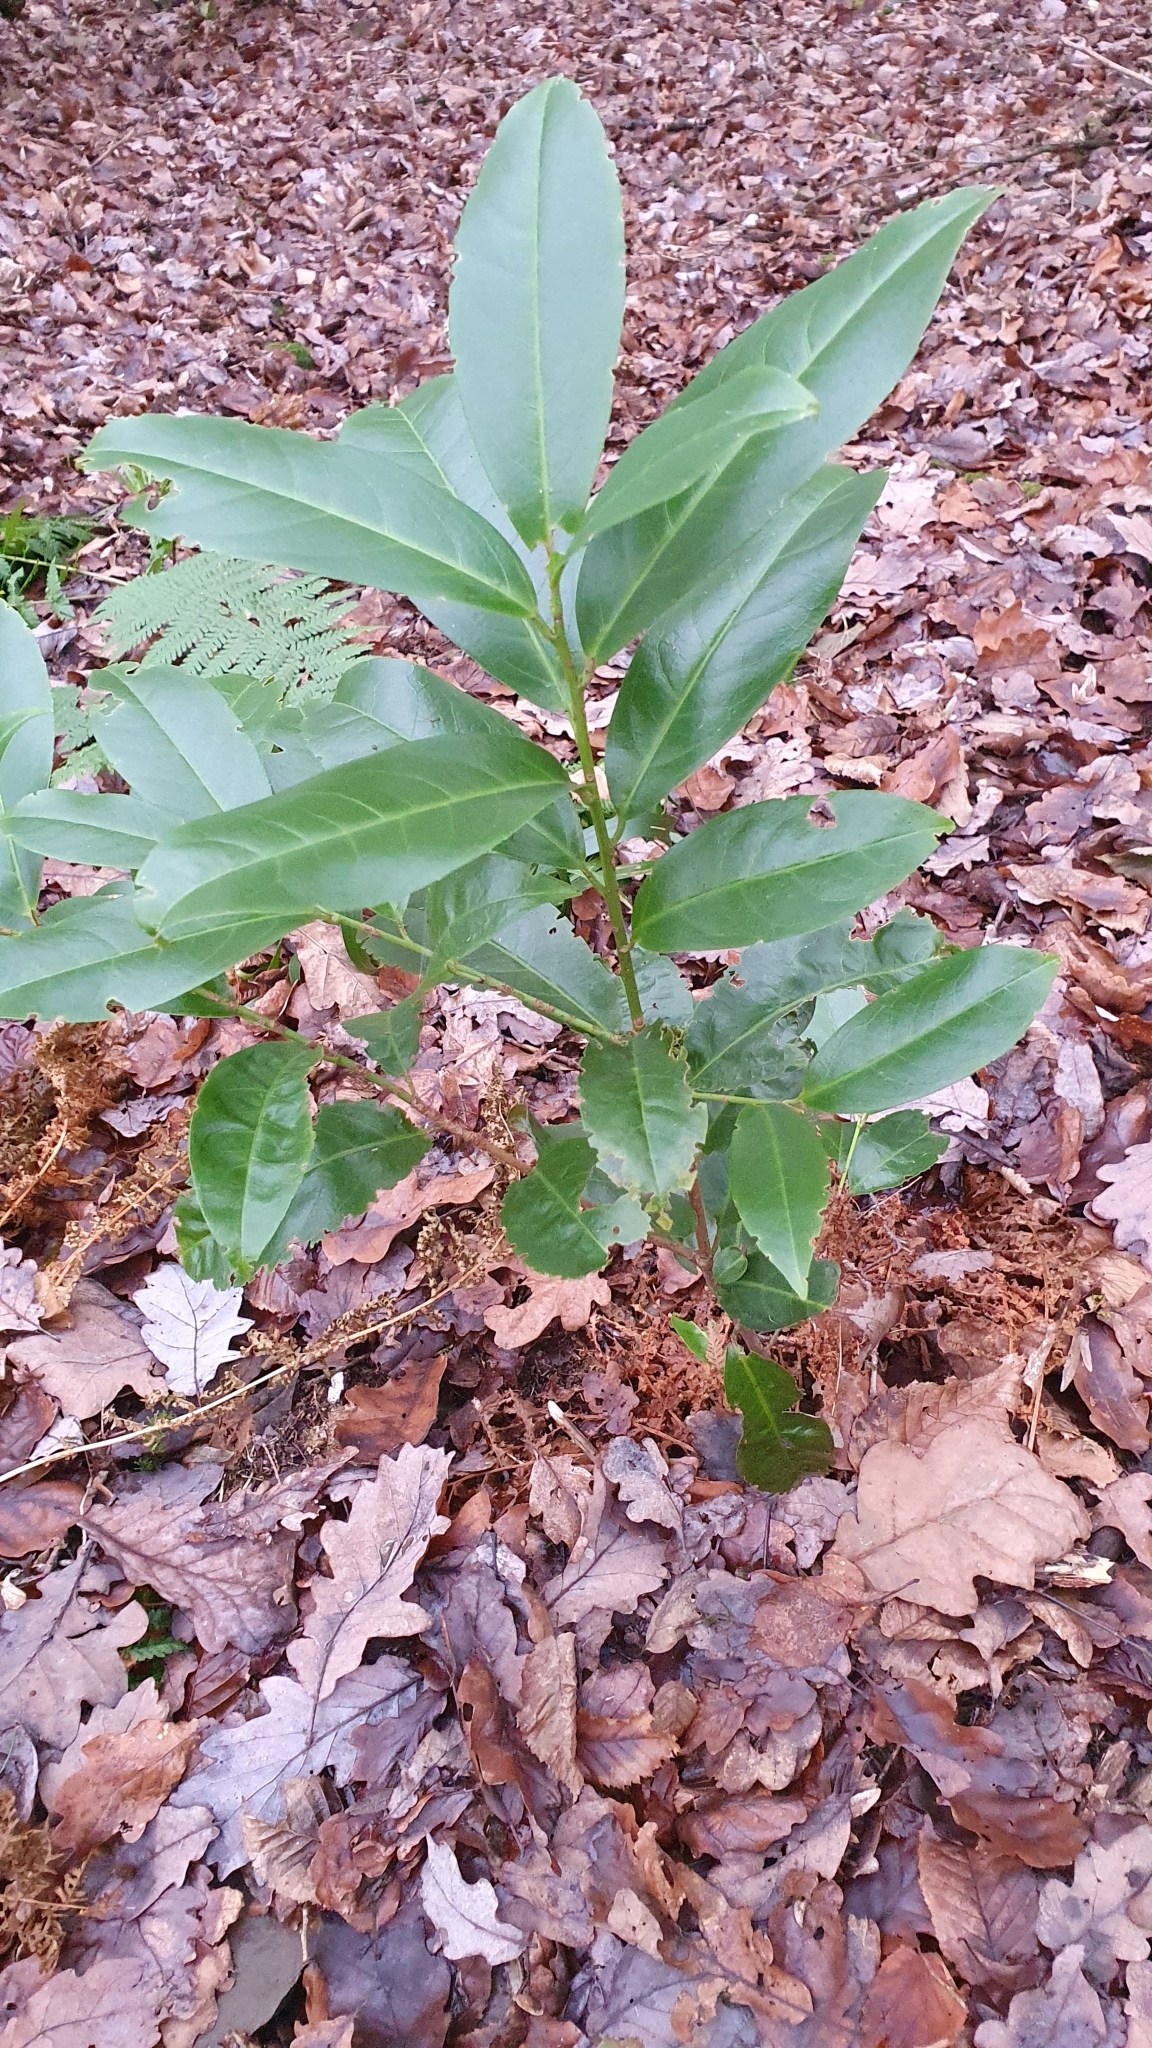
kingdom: Plantae
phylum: Tracheophyta
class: Magnoliopsida
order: Rosales
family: Rosaceae
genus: Prunus
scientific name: Prunus laurocerasus
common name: Cherry laurel
